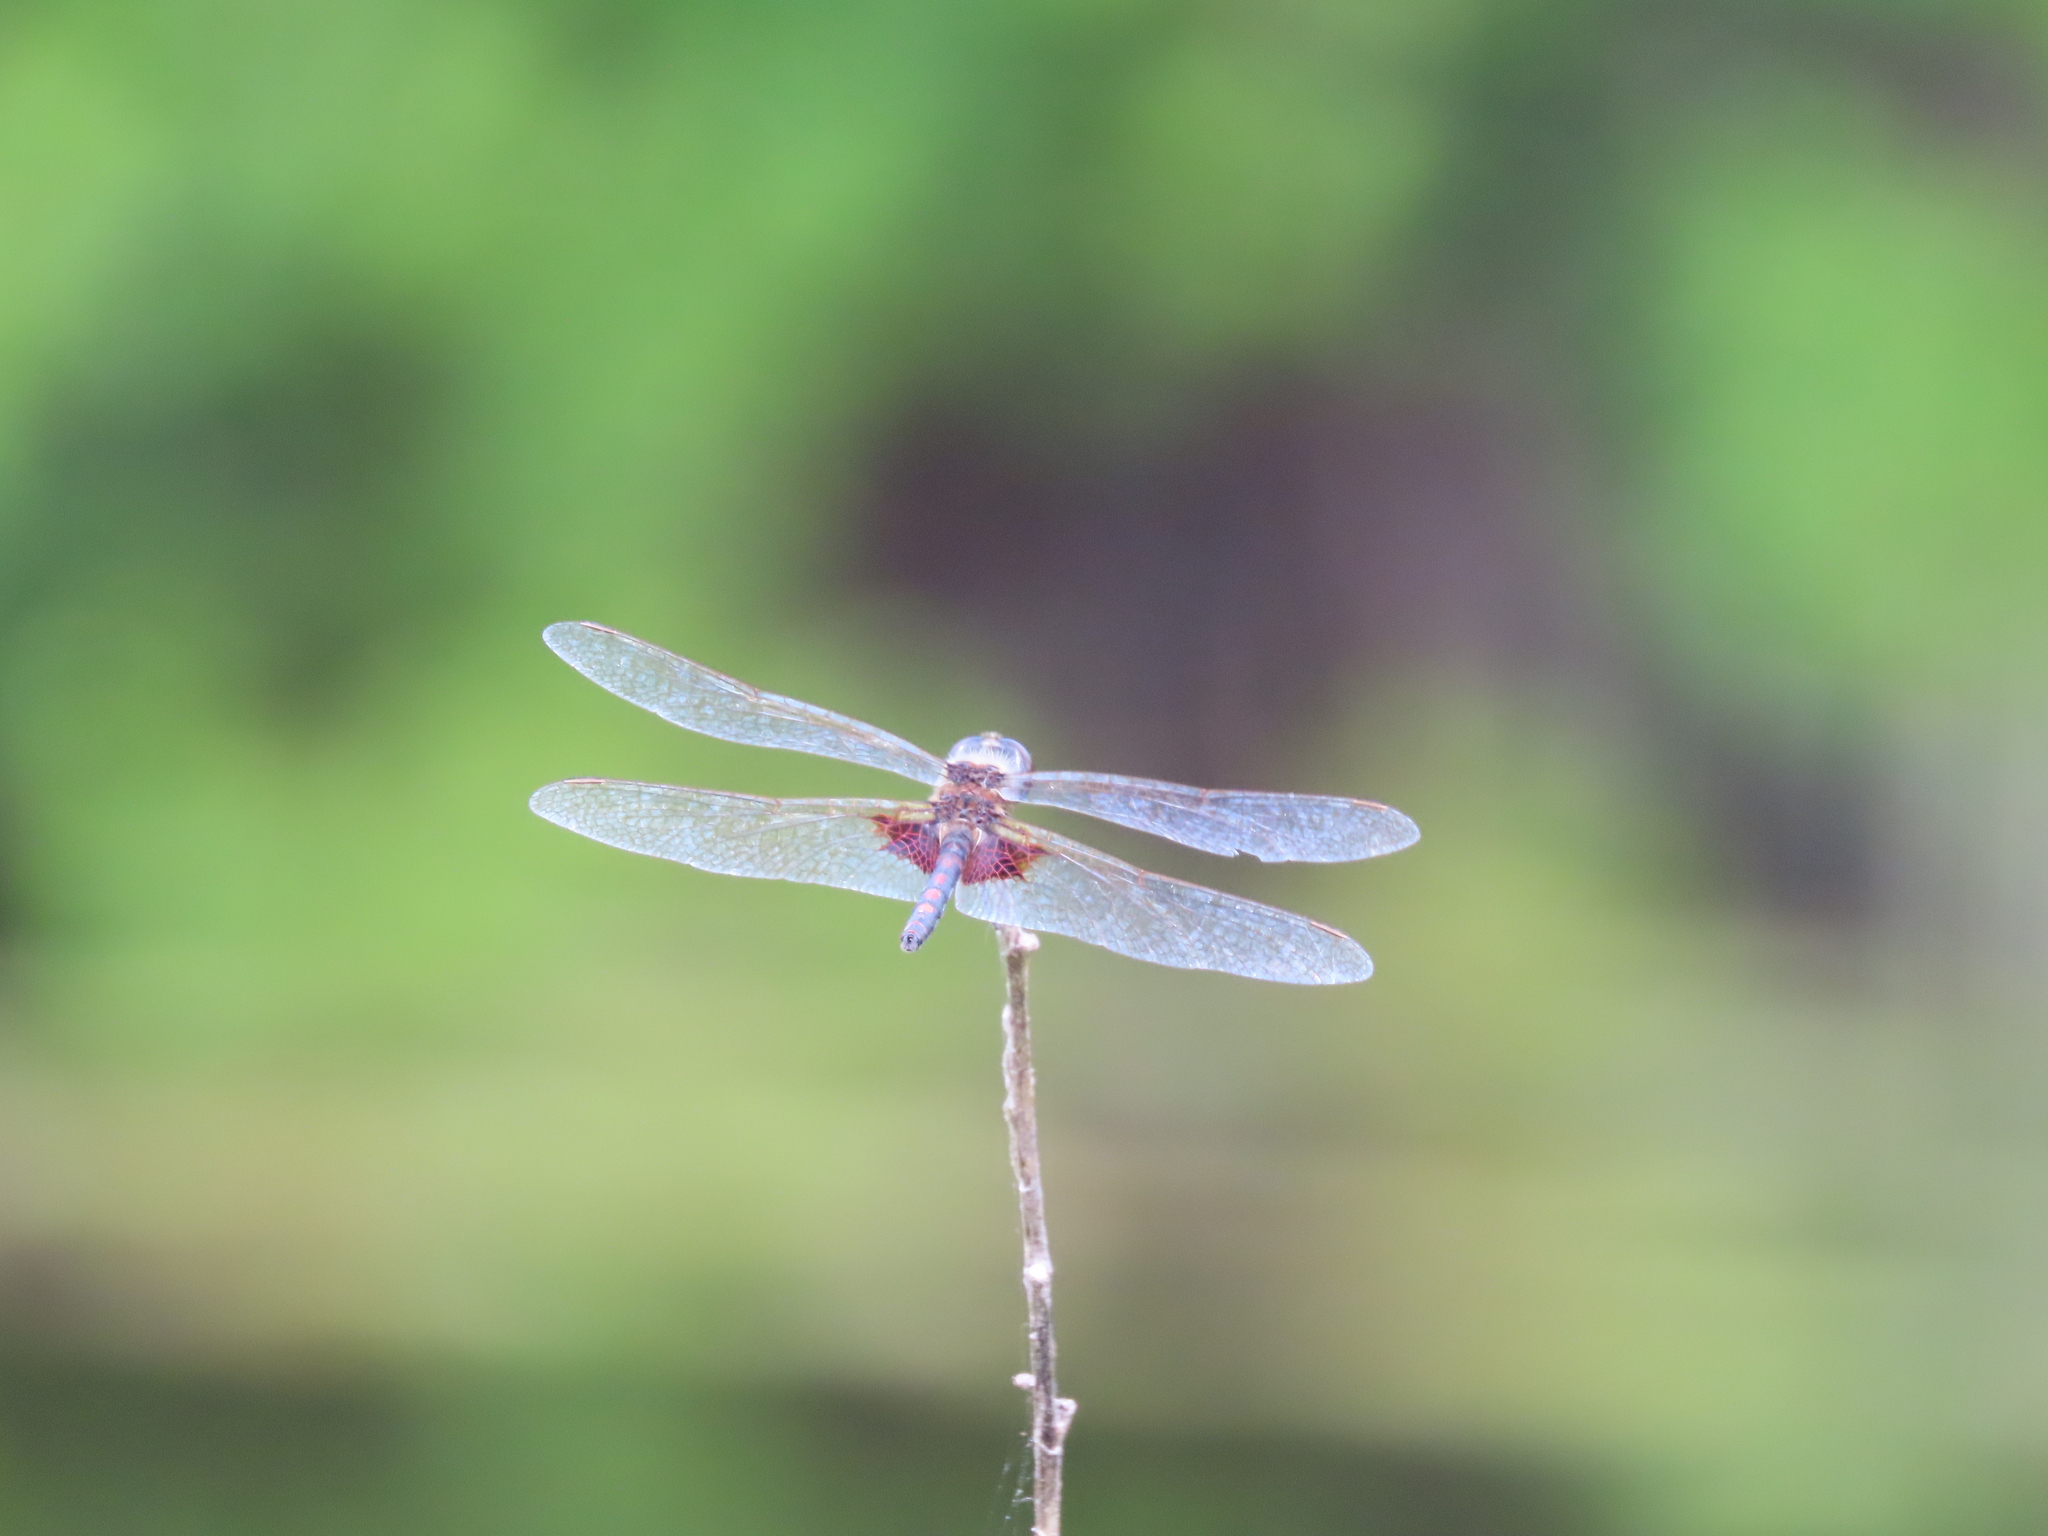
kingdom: Animalia
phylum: Arthropoda
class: Insecta
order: Odonata
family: Libellulidae
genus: Celithemis
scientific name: Celithemis ornata
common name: Ornate pennant
